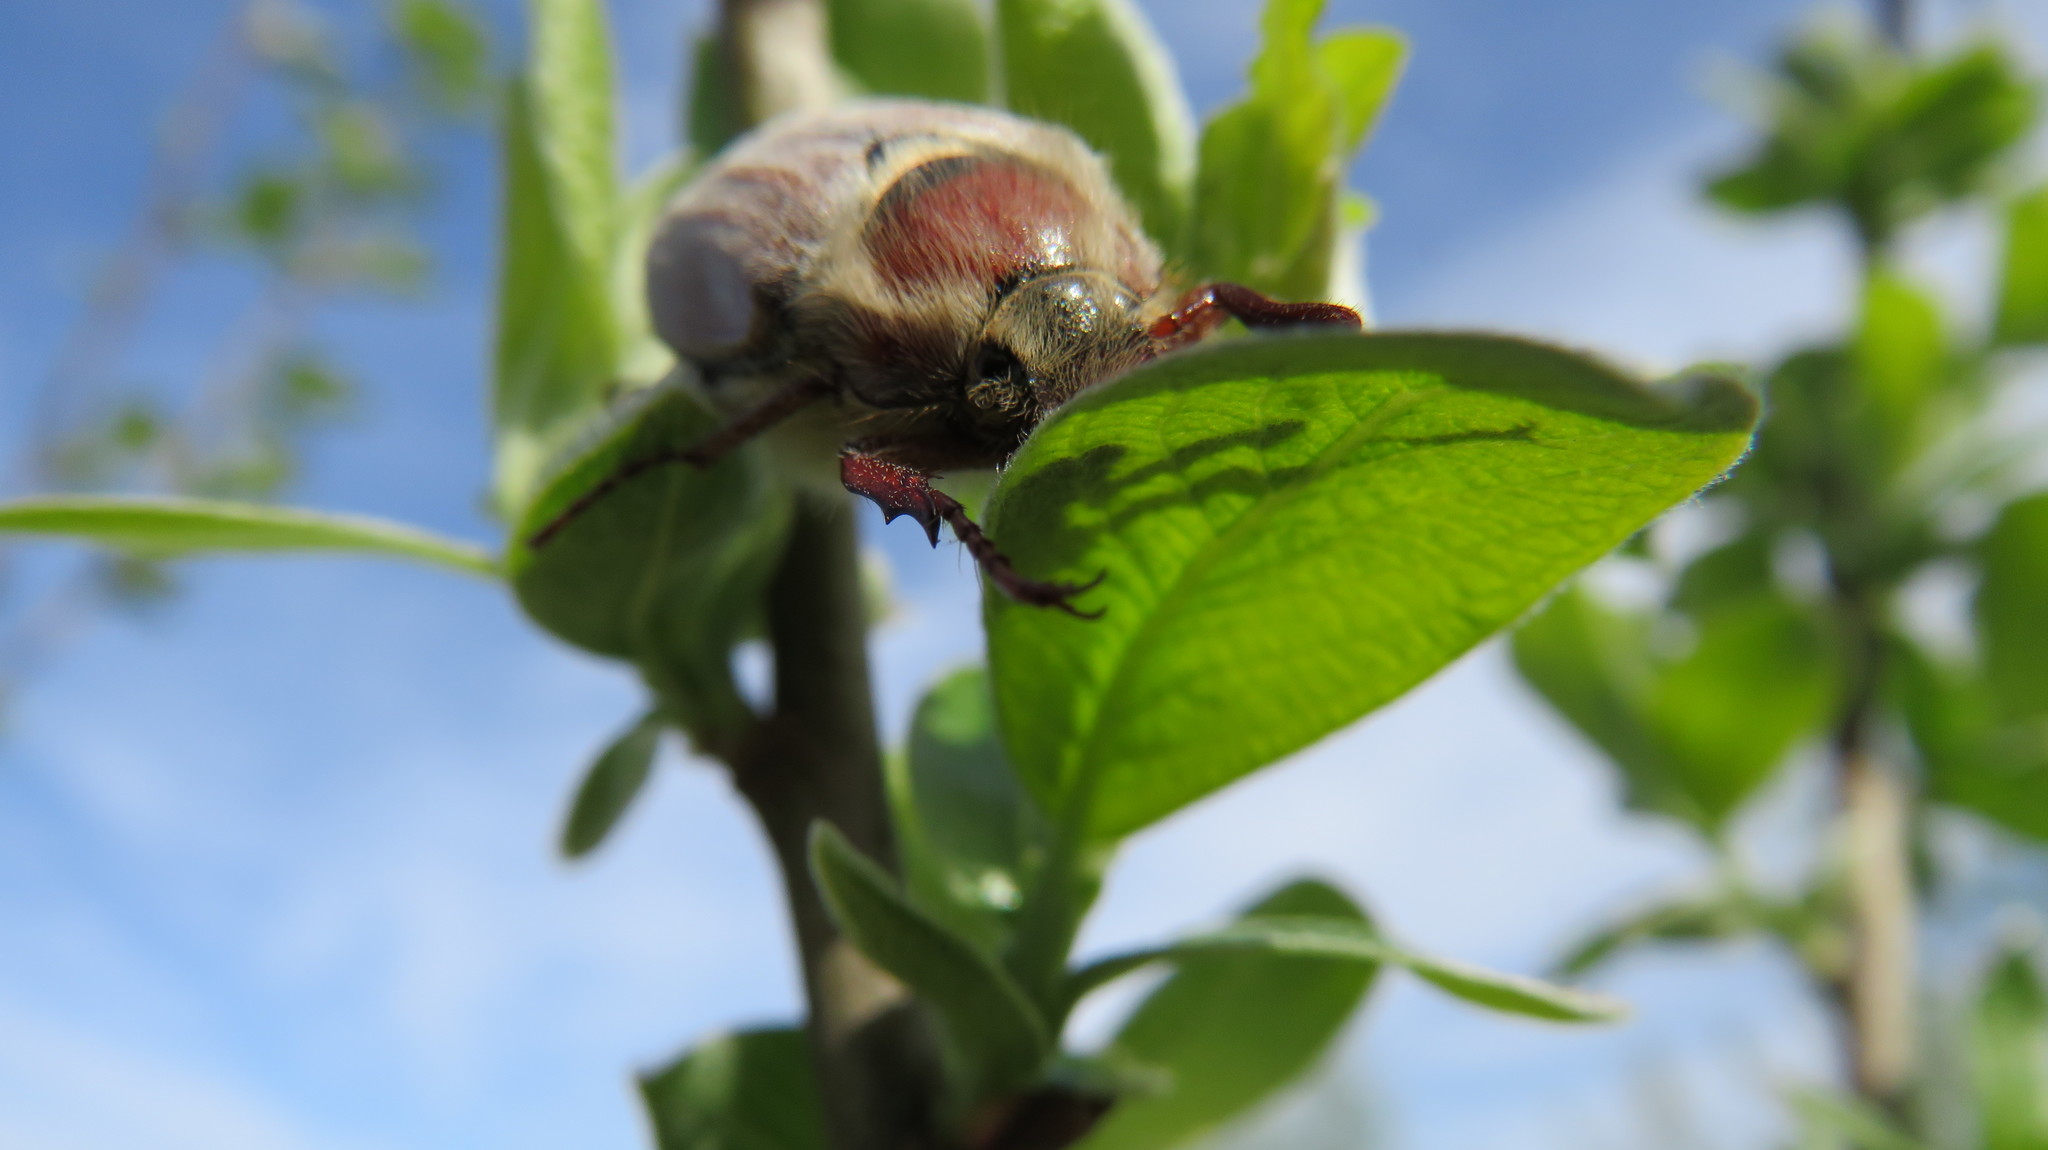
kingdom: Animalia
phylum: Arthropoda
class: Insecta
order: Coleoptera
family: Scarabaeidae
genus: Melolontha
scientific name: Melolontha hippocastani
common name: Chestnut cockchafer
